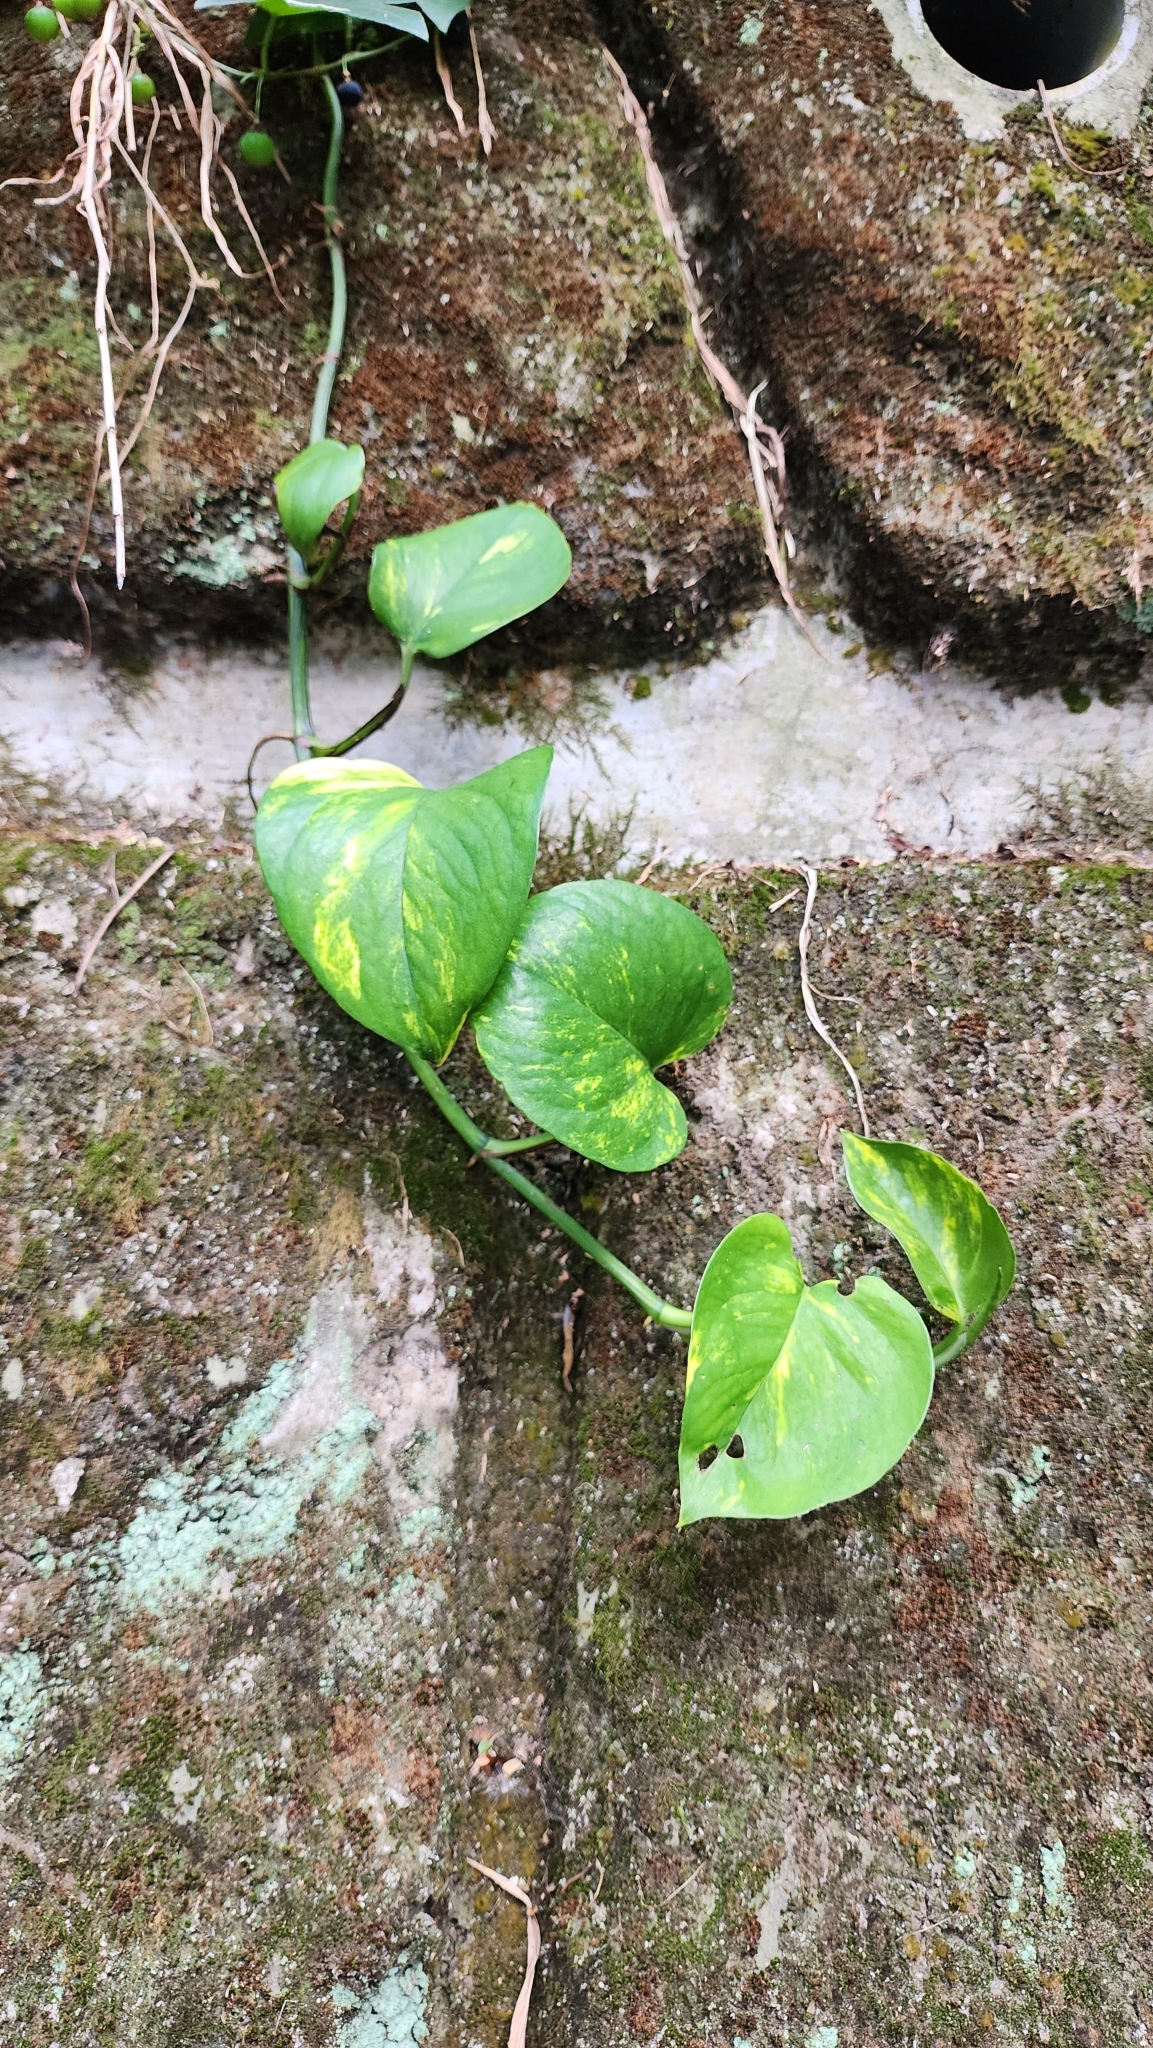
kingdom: Plantae
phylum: Tracheophyta
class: Liliopsida
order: Alismatales
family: Araceae
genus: Epipremnum
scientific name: Epipremnum aureum
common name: Golden hunter's-robe
